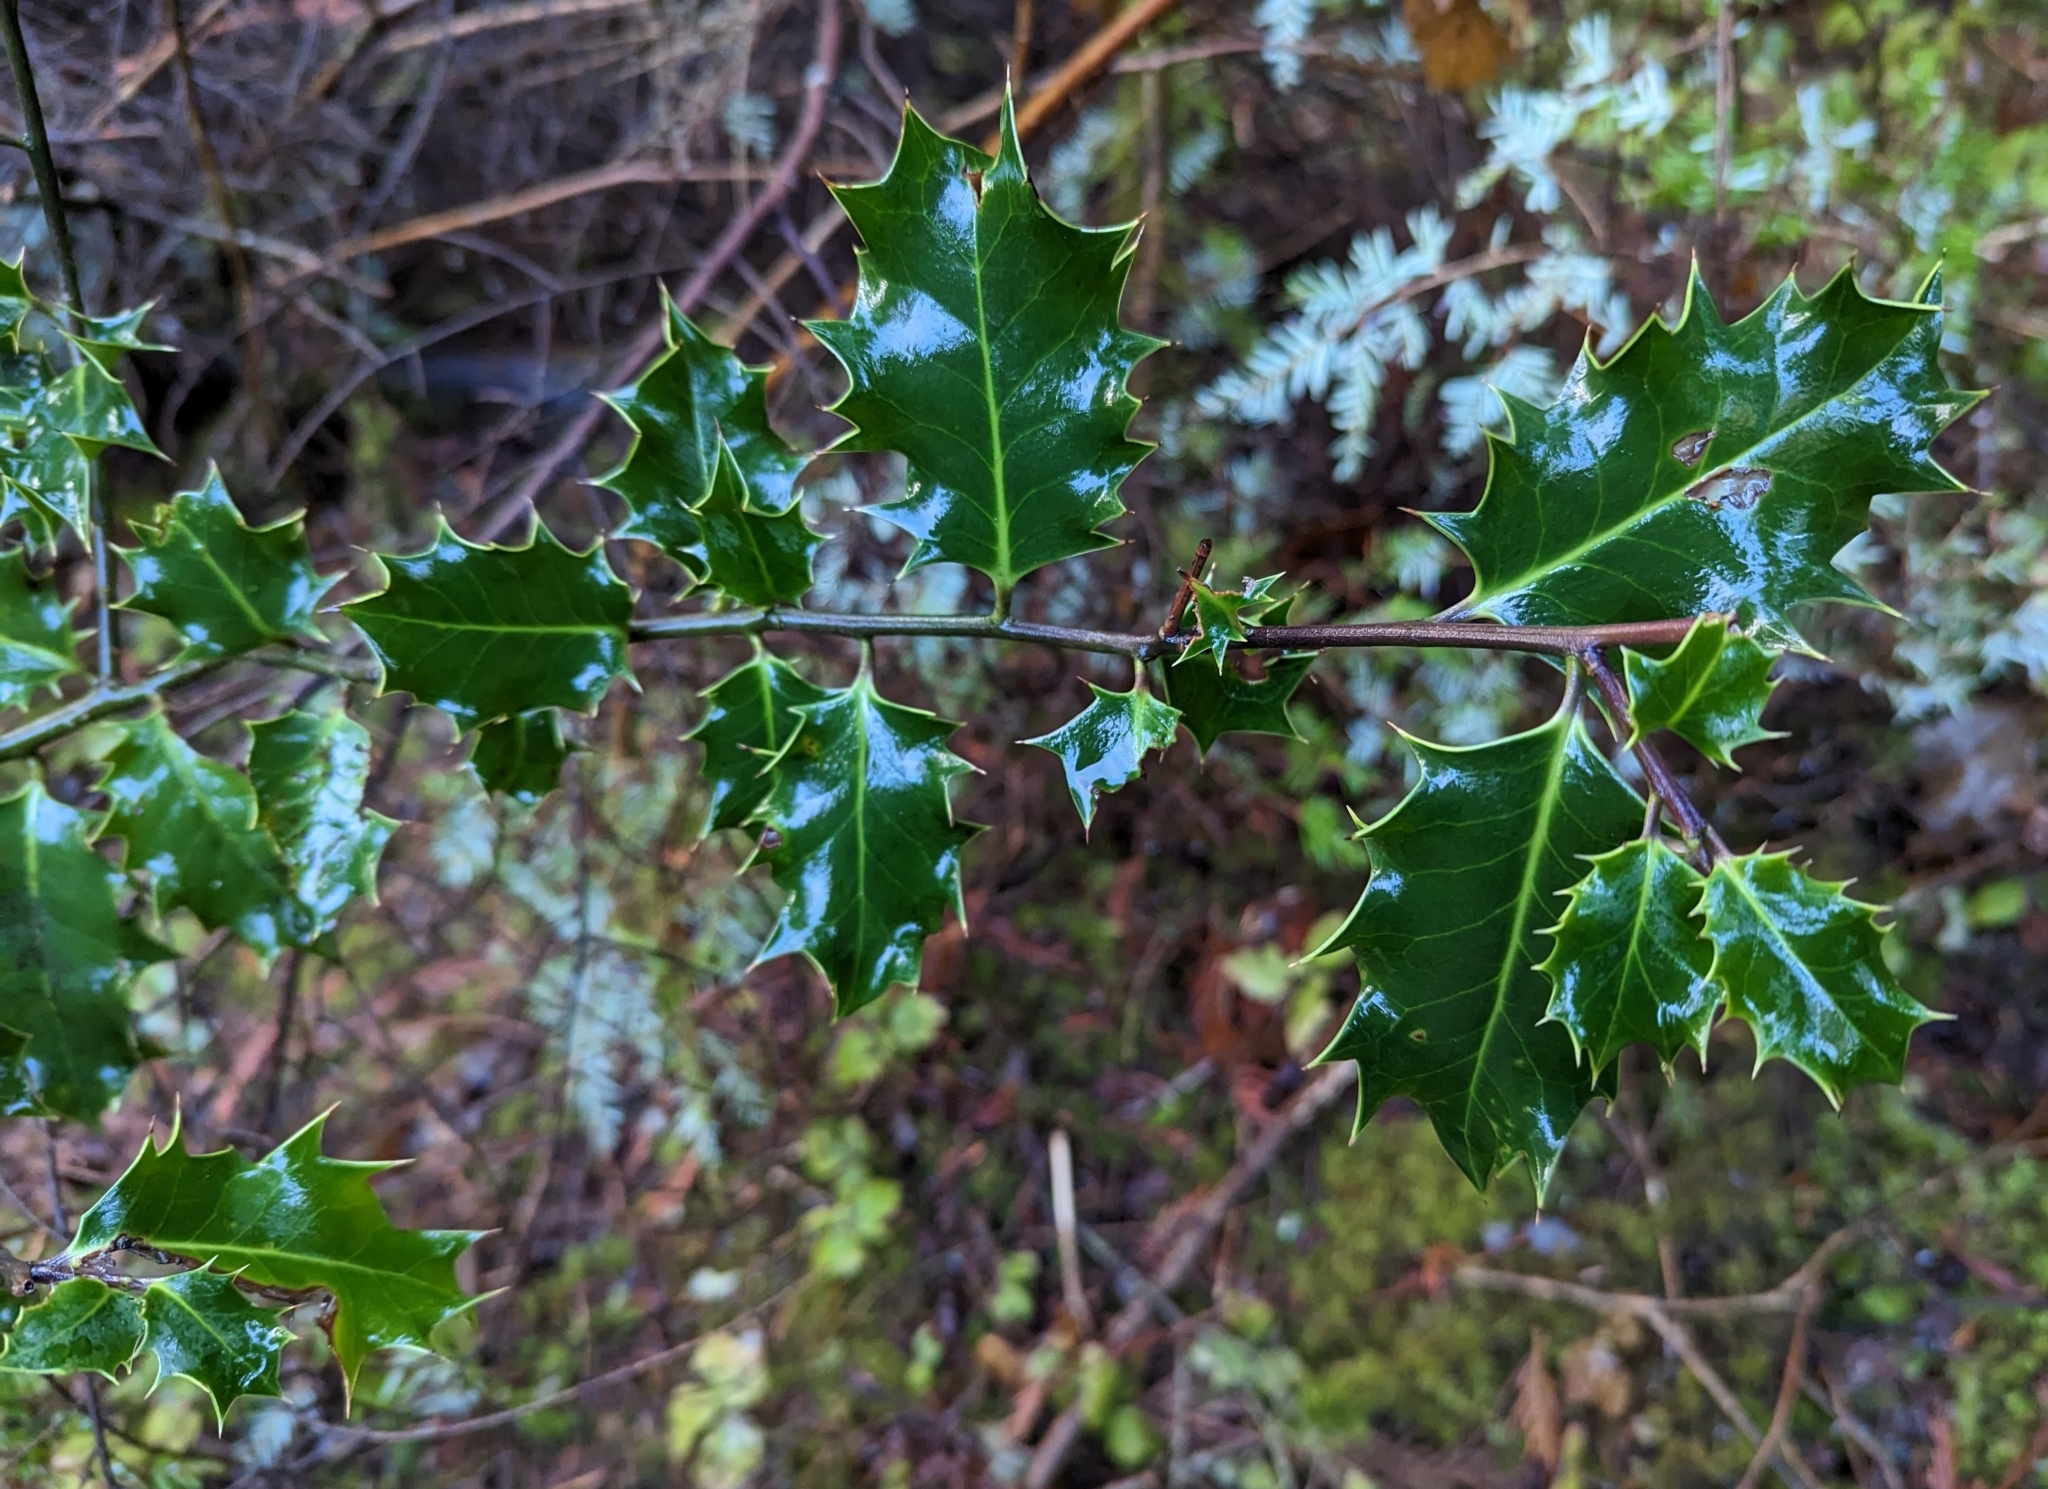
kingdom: Plantae
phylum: Tracheophyta
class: Magnoliopsida
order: Aquifoliales
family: Aquifoliaceae
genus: Ilex
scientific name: Ilex aquifolium
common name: English holly
